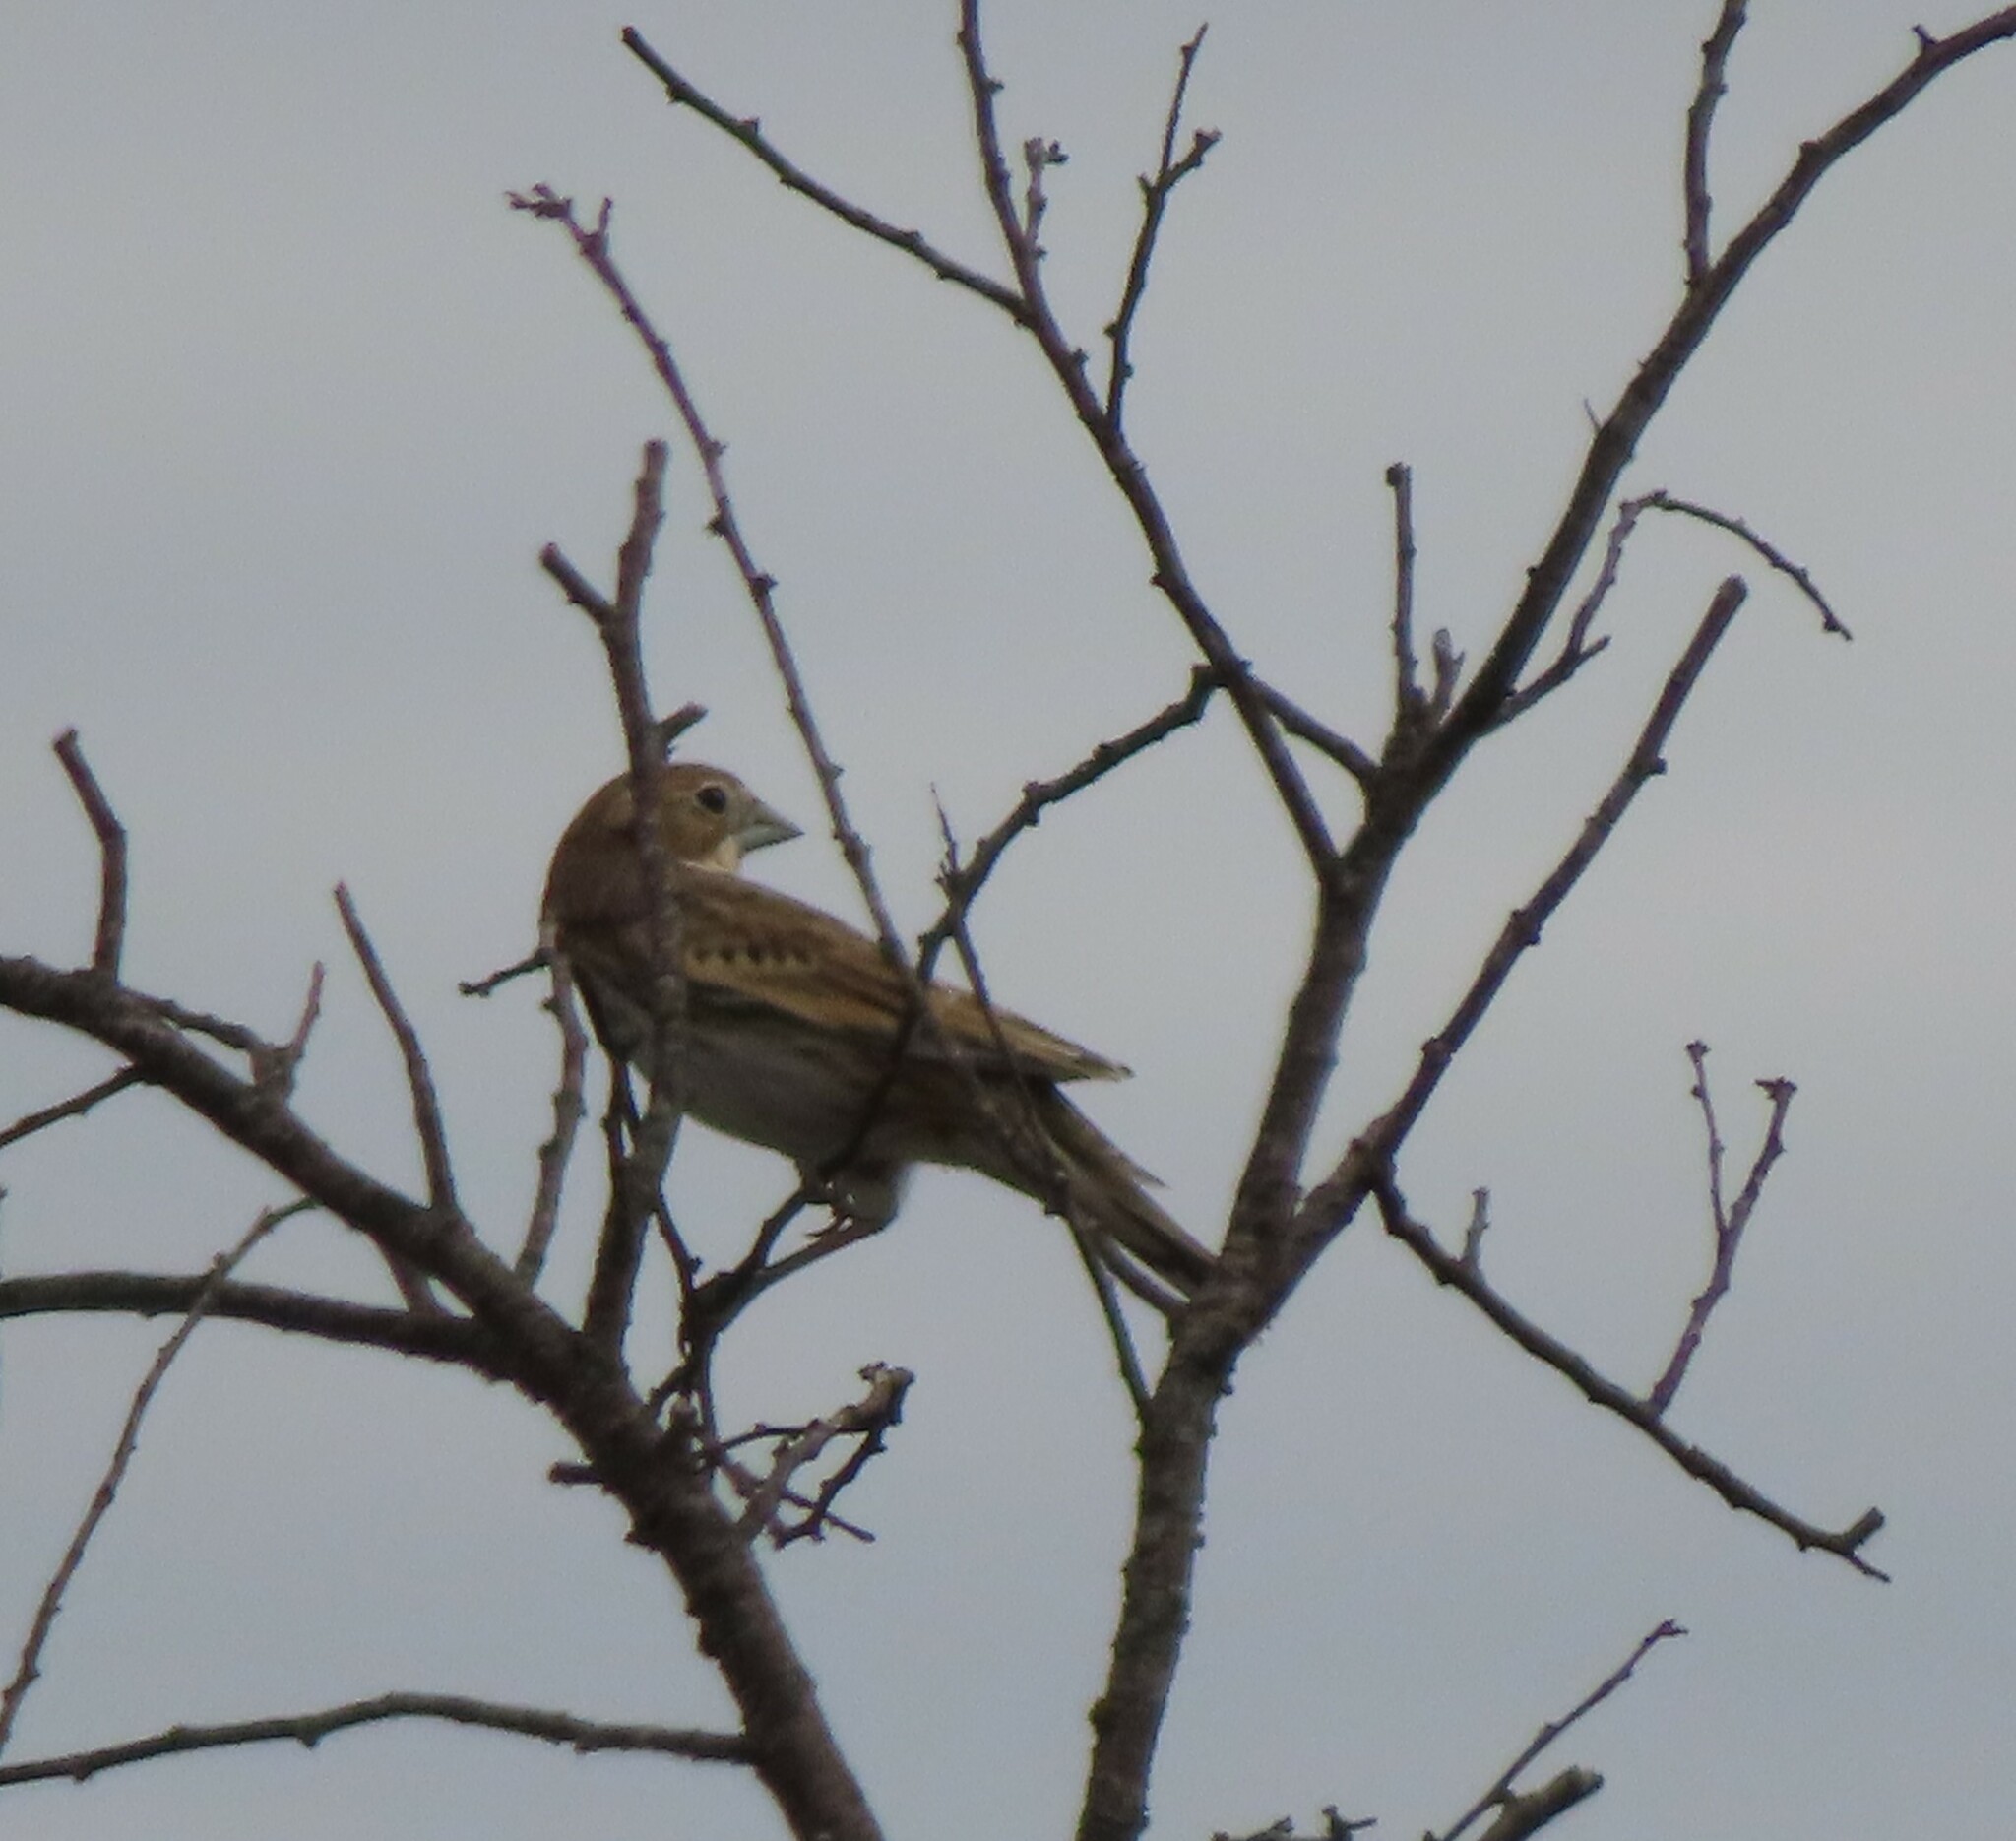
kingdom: Animalia
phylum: Chordata
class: Aves
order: Passeriformes
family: Cardinalidae
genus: Spiza
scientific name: Spiza americana
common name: Dickcissel
